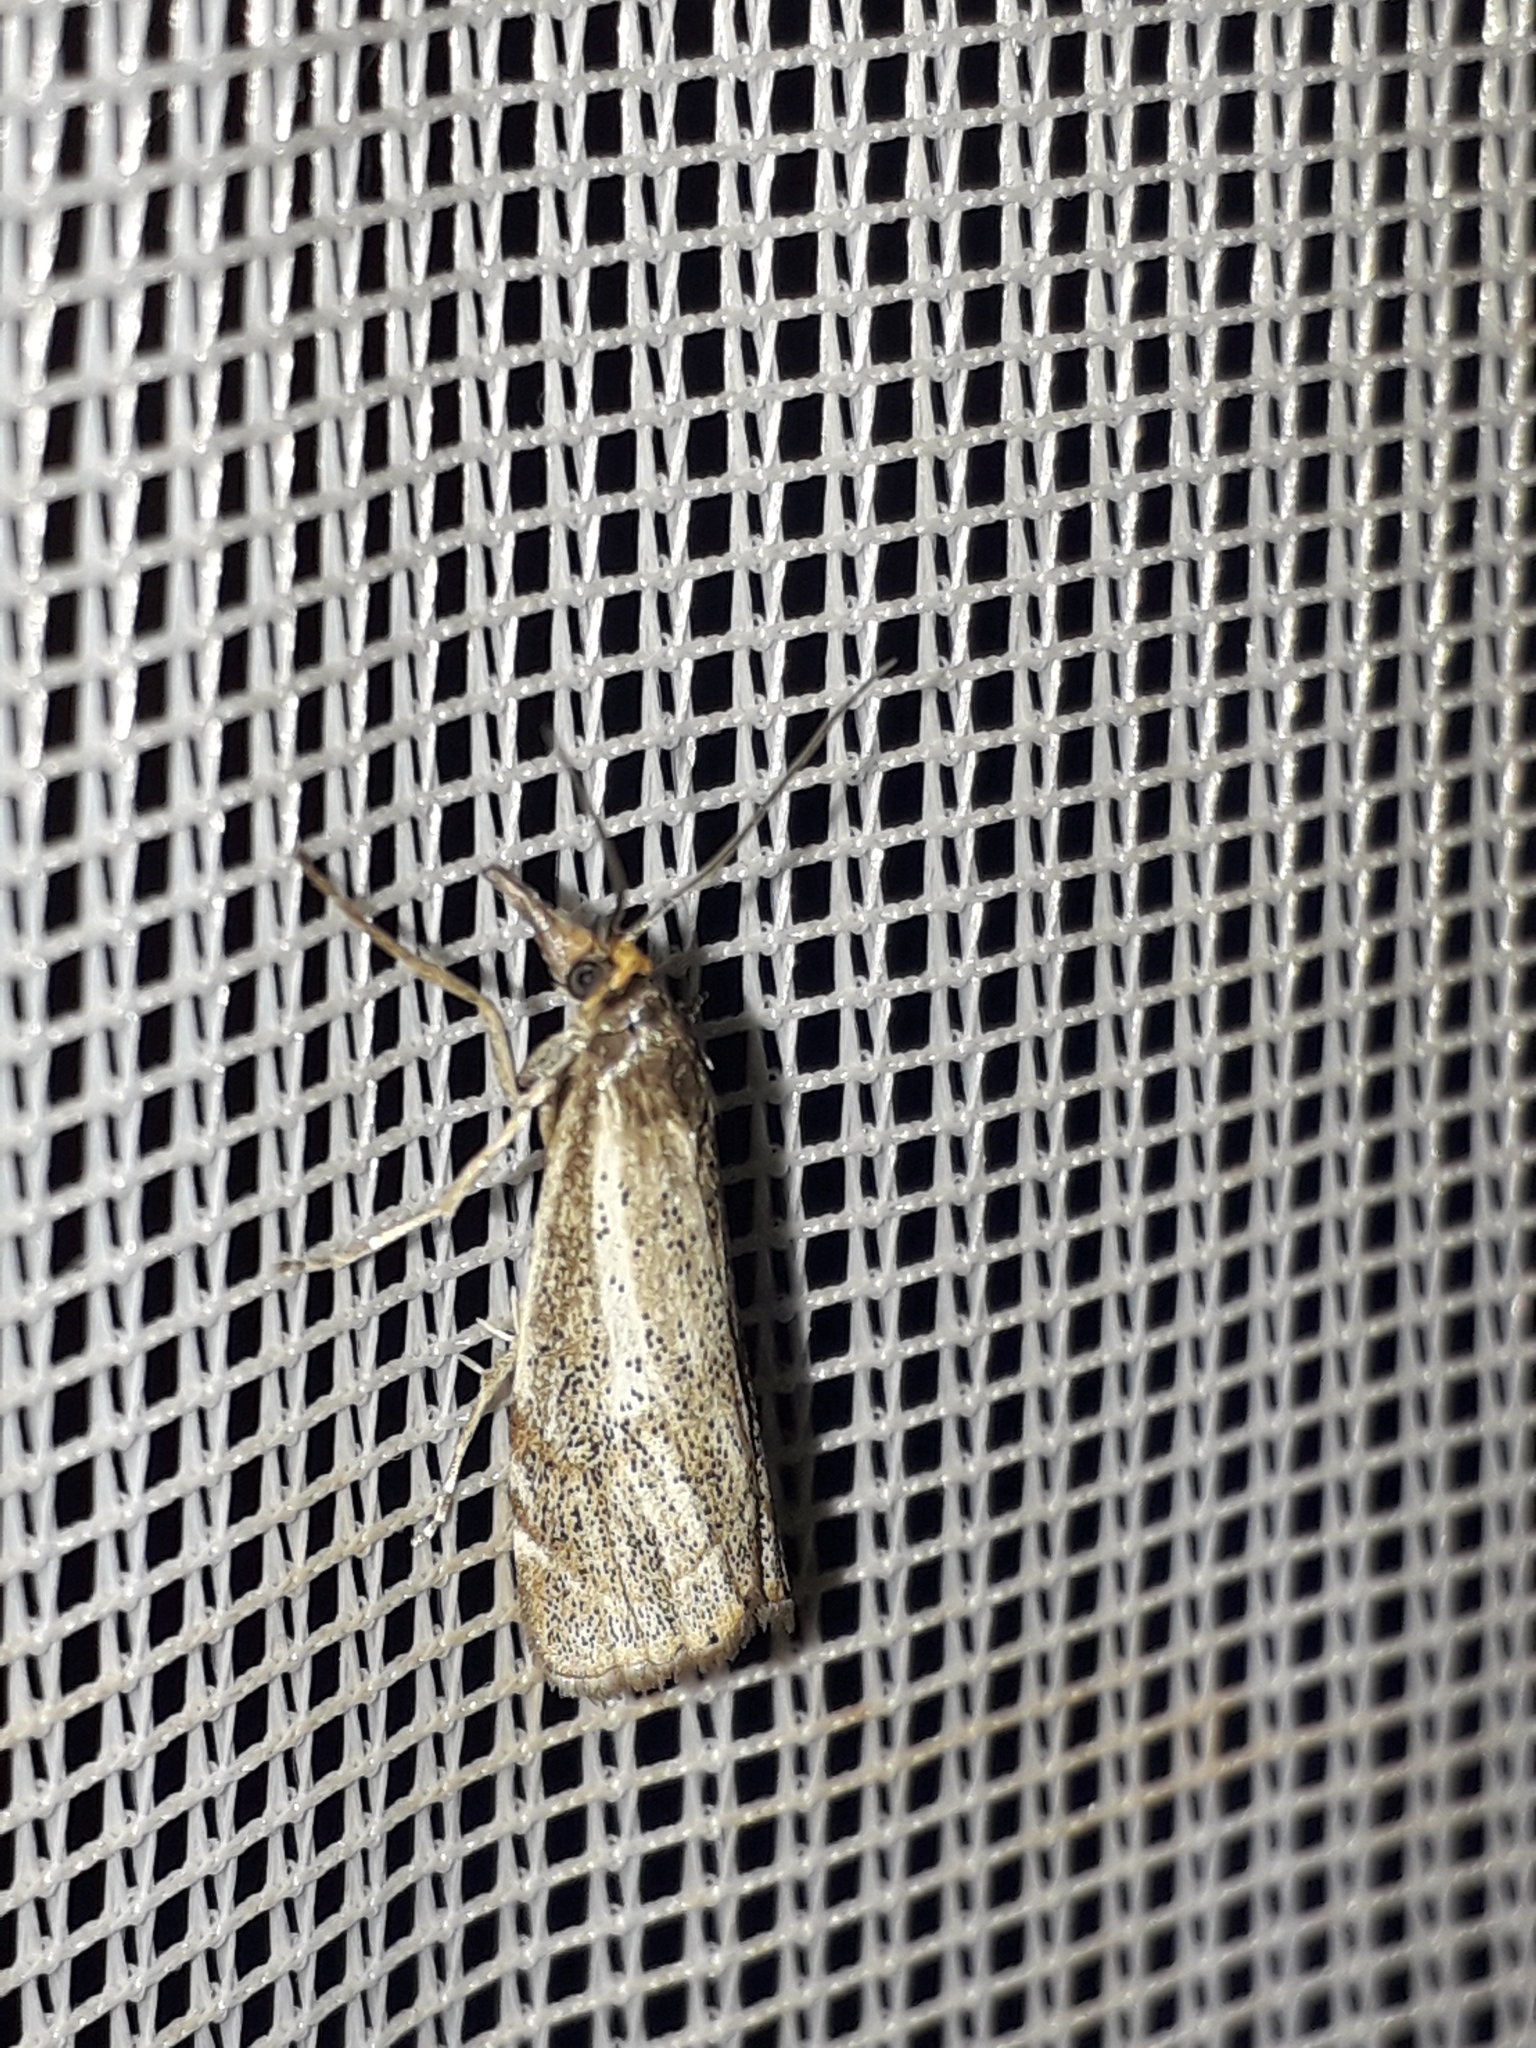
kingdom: Animalia
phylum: Arthropoda
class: Insecta
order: Lepidoptera
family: Crambidae
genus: Thisanotia
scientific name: Thisanotia chrysonuchella
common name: Powdered grass-veneer
